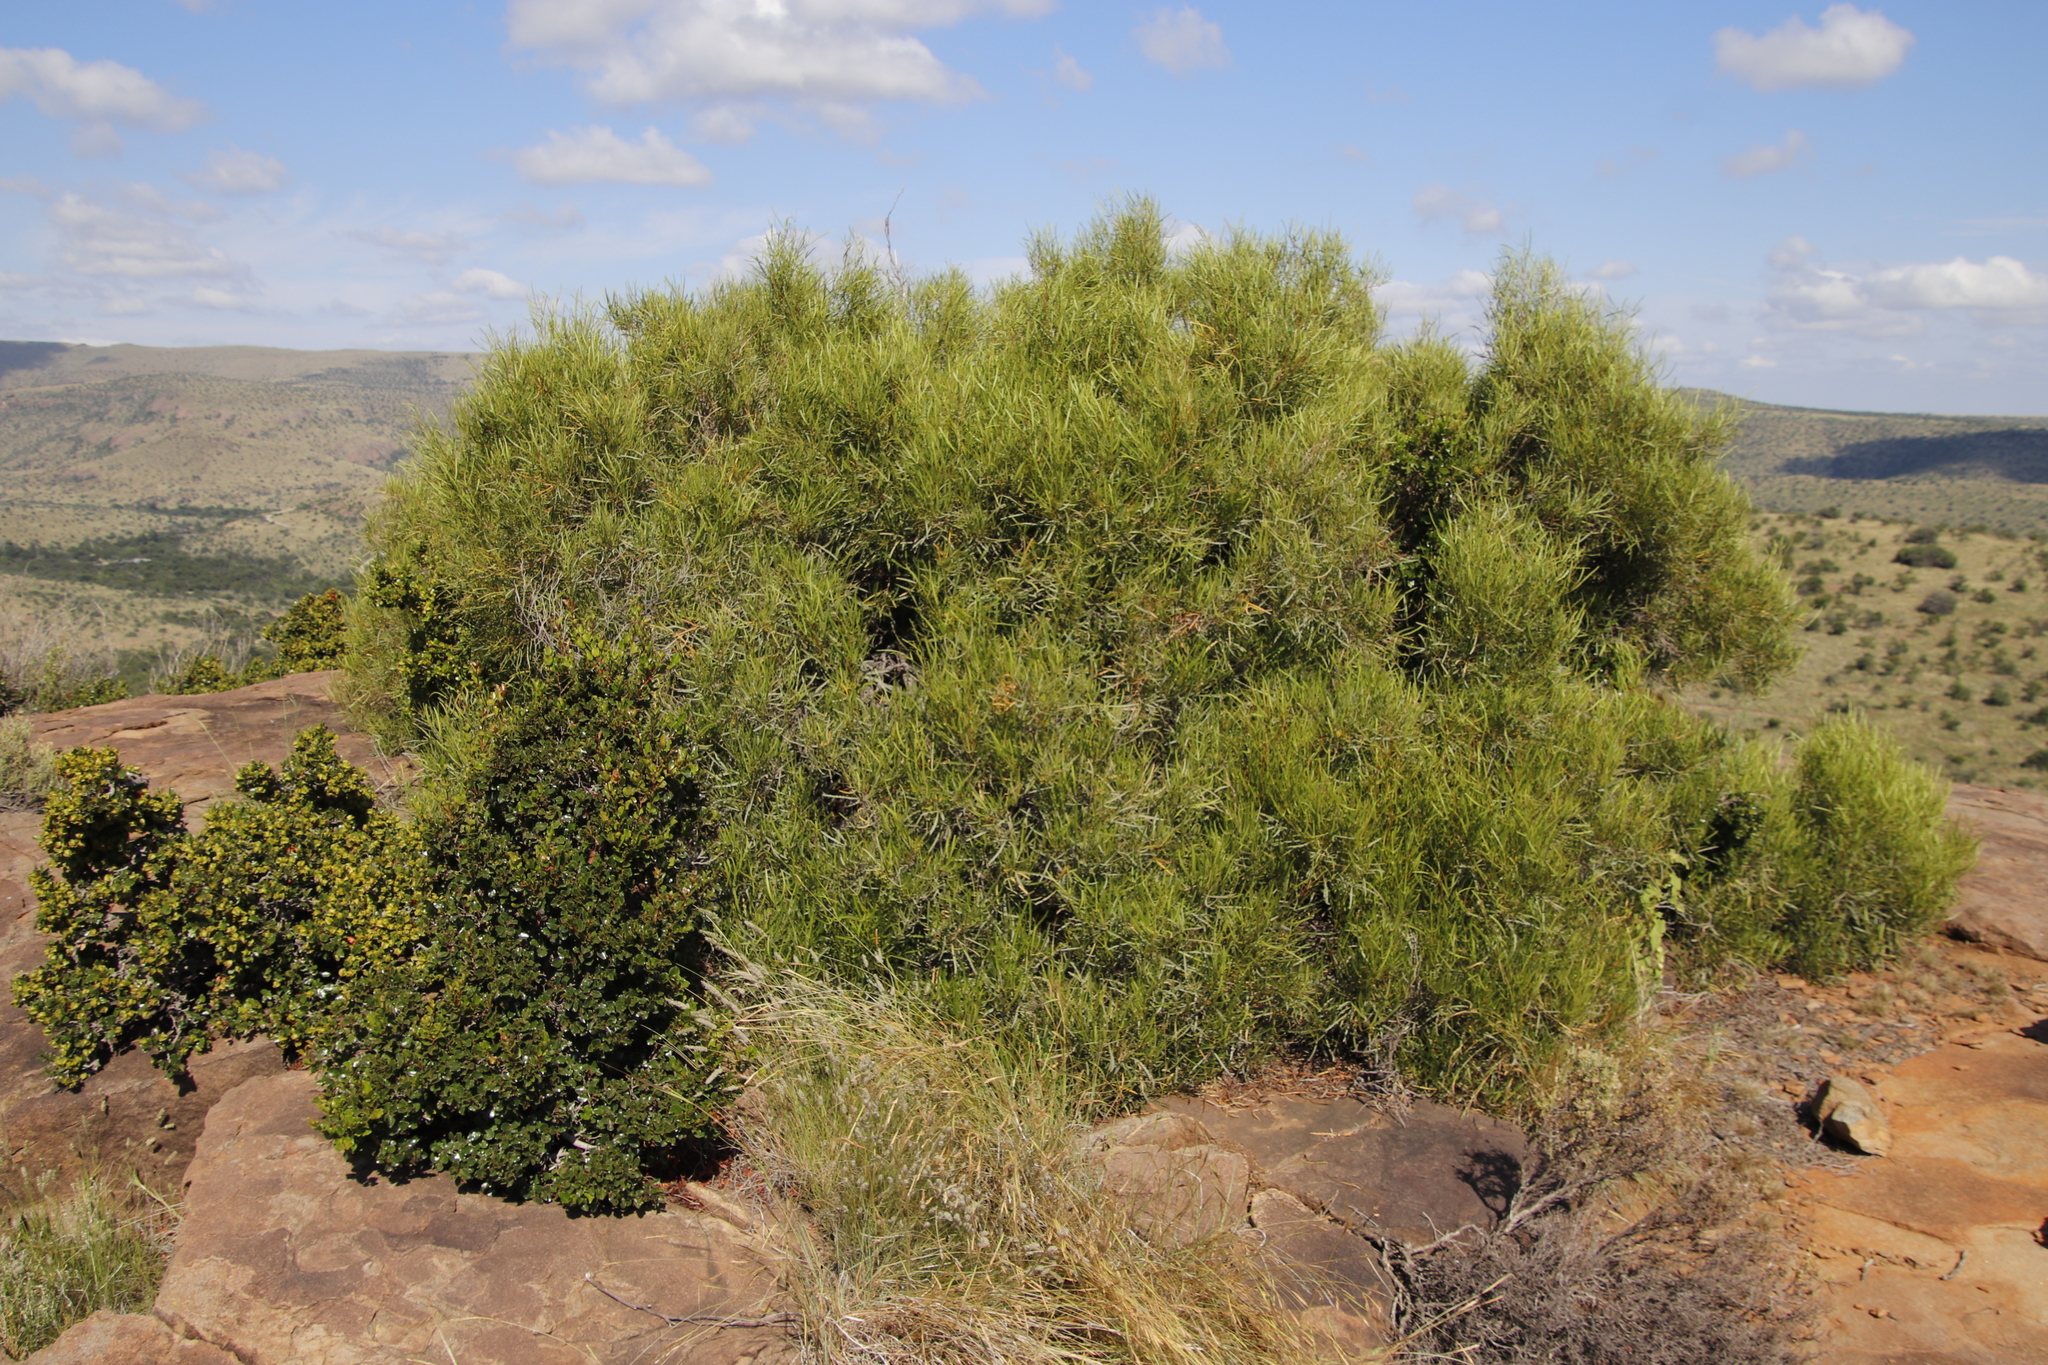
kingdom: Plantae
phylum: Tracheophyta
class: Magnoliopsida
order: Sapindales
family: Anacardiaceae
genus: Searsia
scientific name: Searsia erosa
